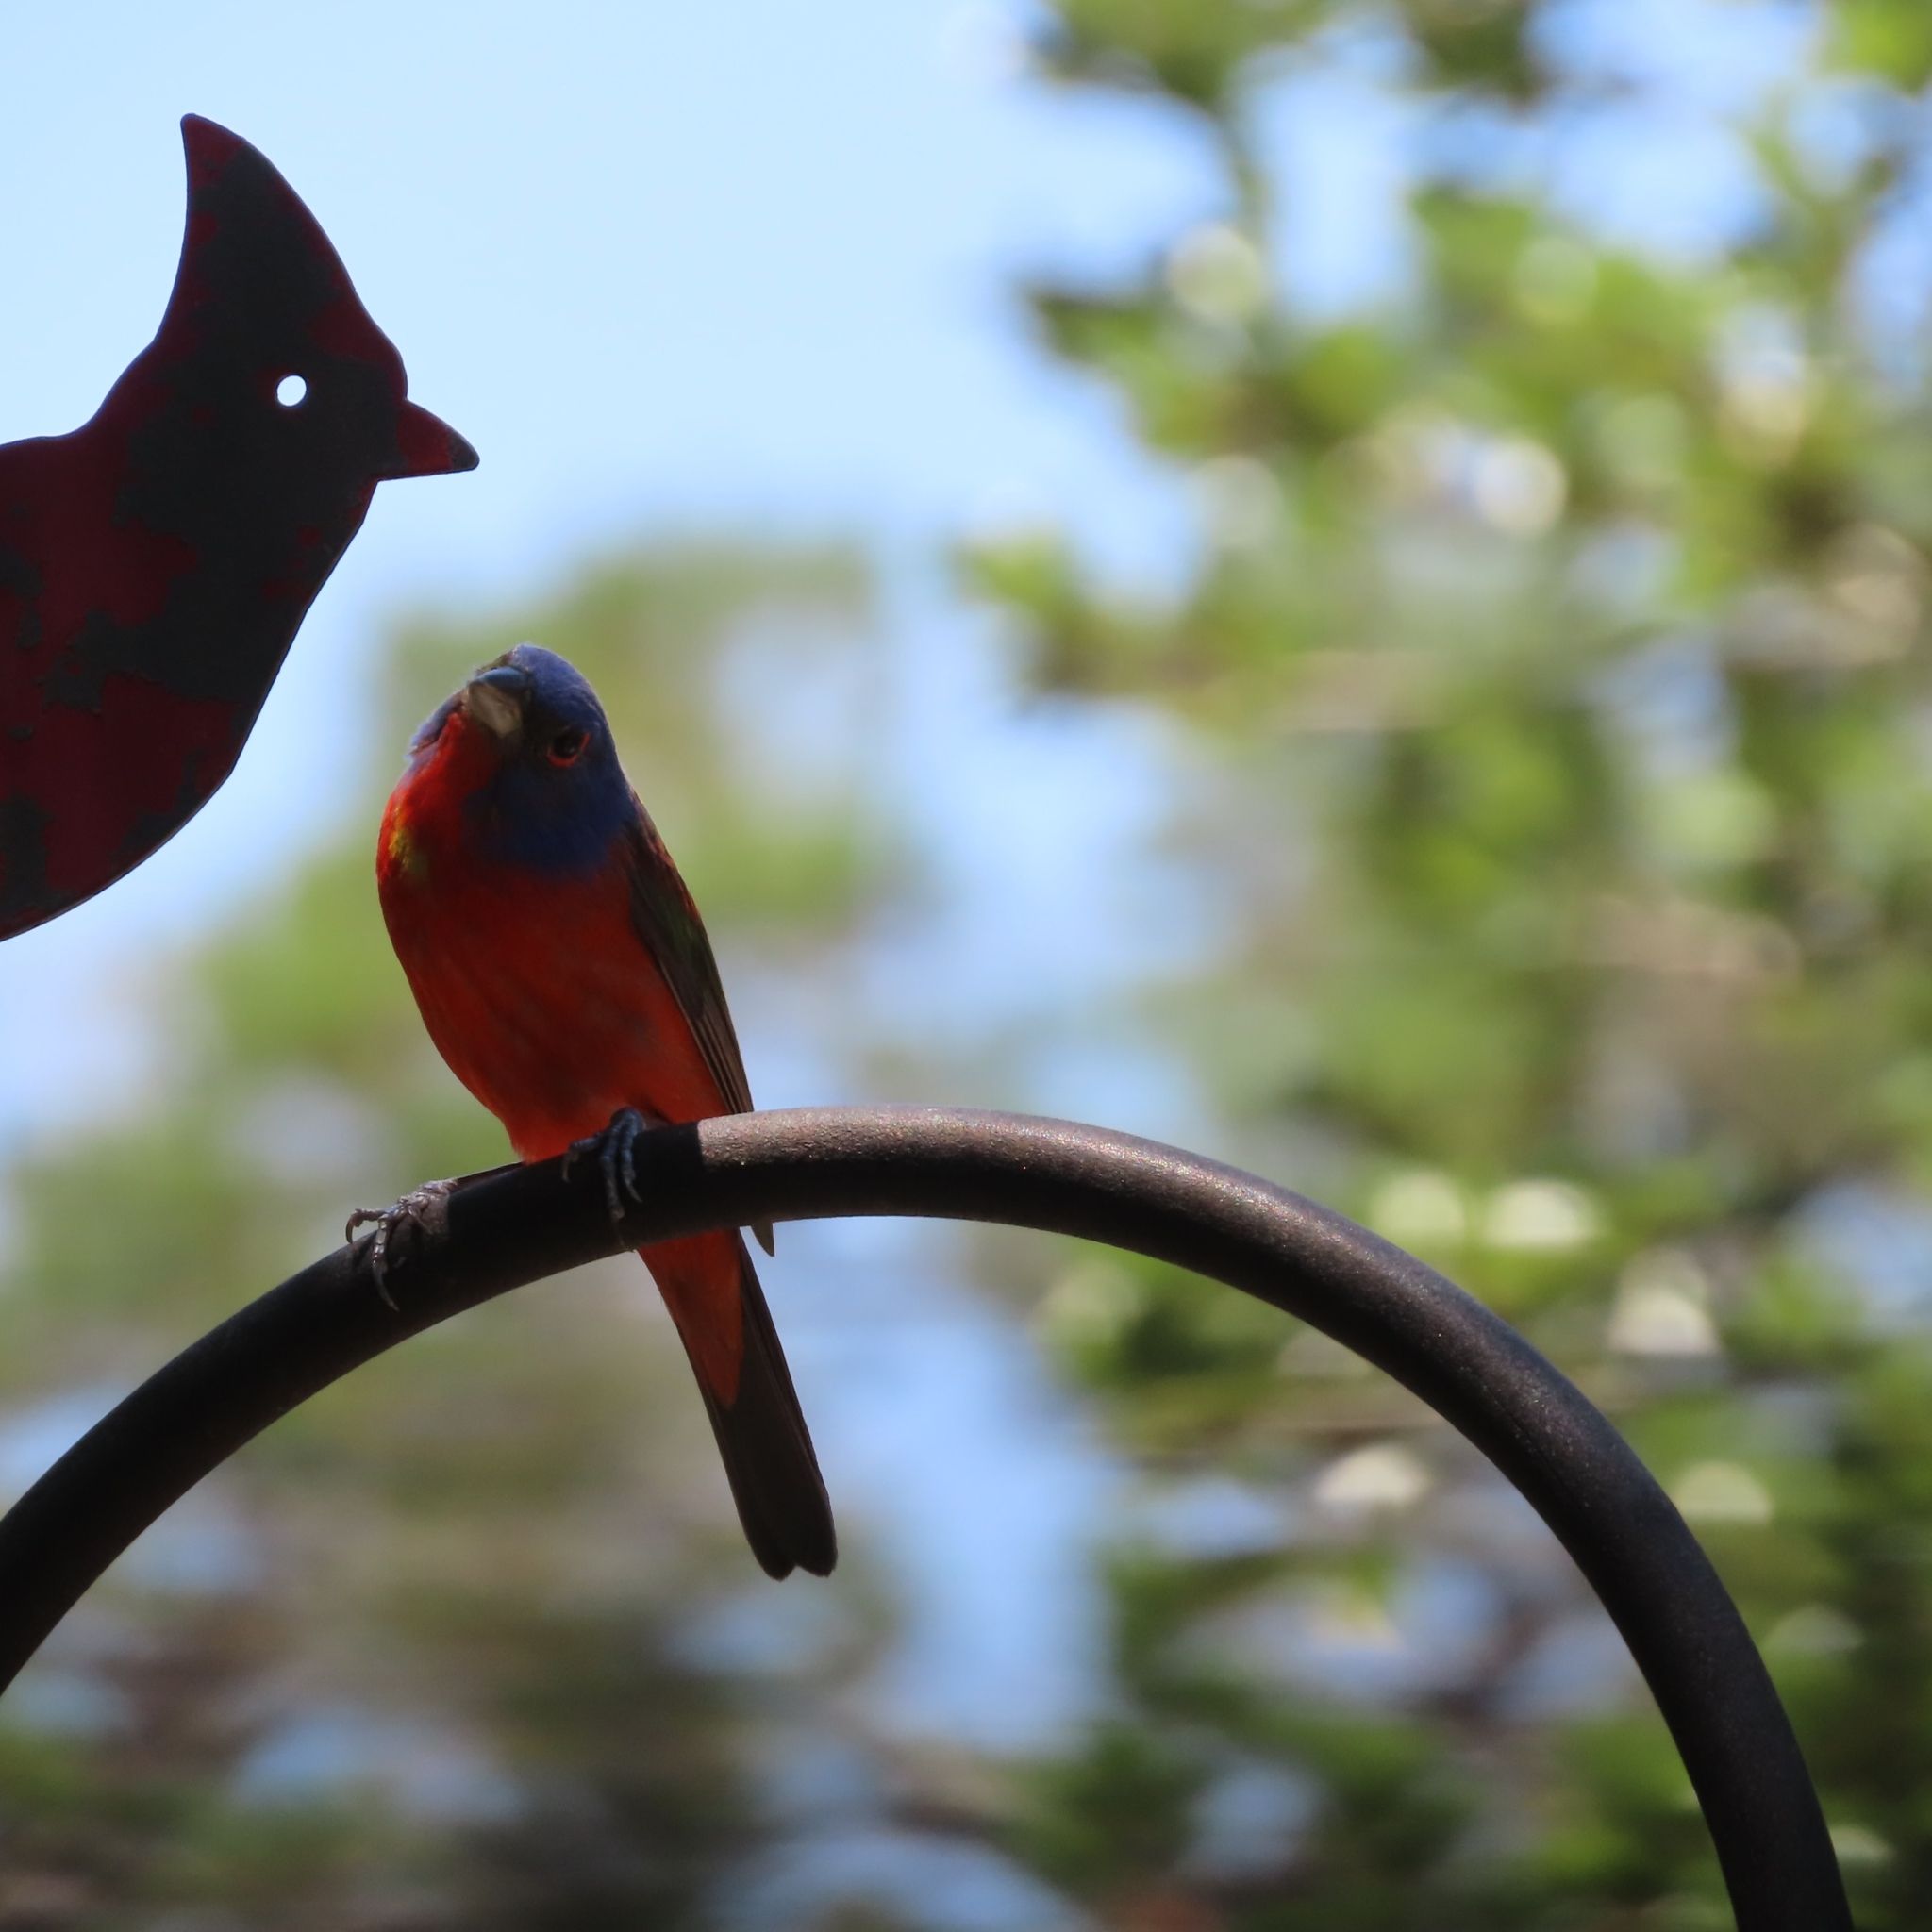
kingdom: Animalia
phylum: Chordata
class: Aves
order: Passeriformes
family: Cardinalidae
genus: Passerina
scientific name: Passerina ciris
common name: Painted bunting
